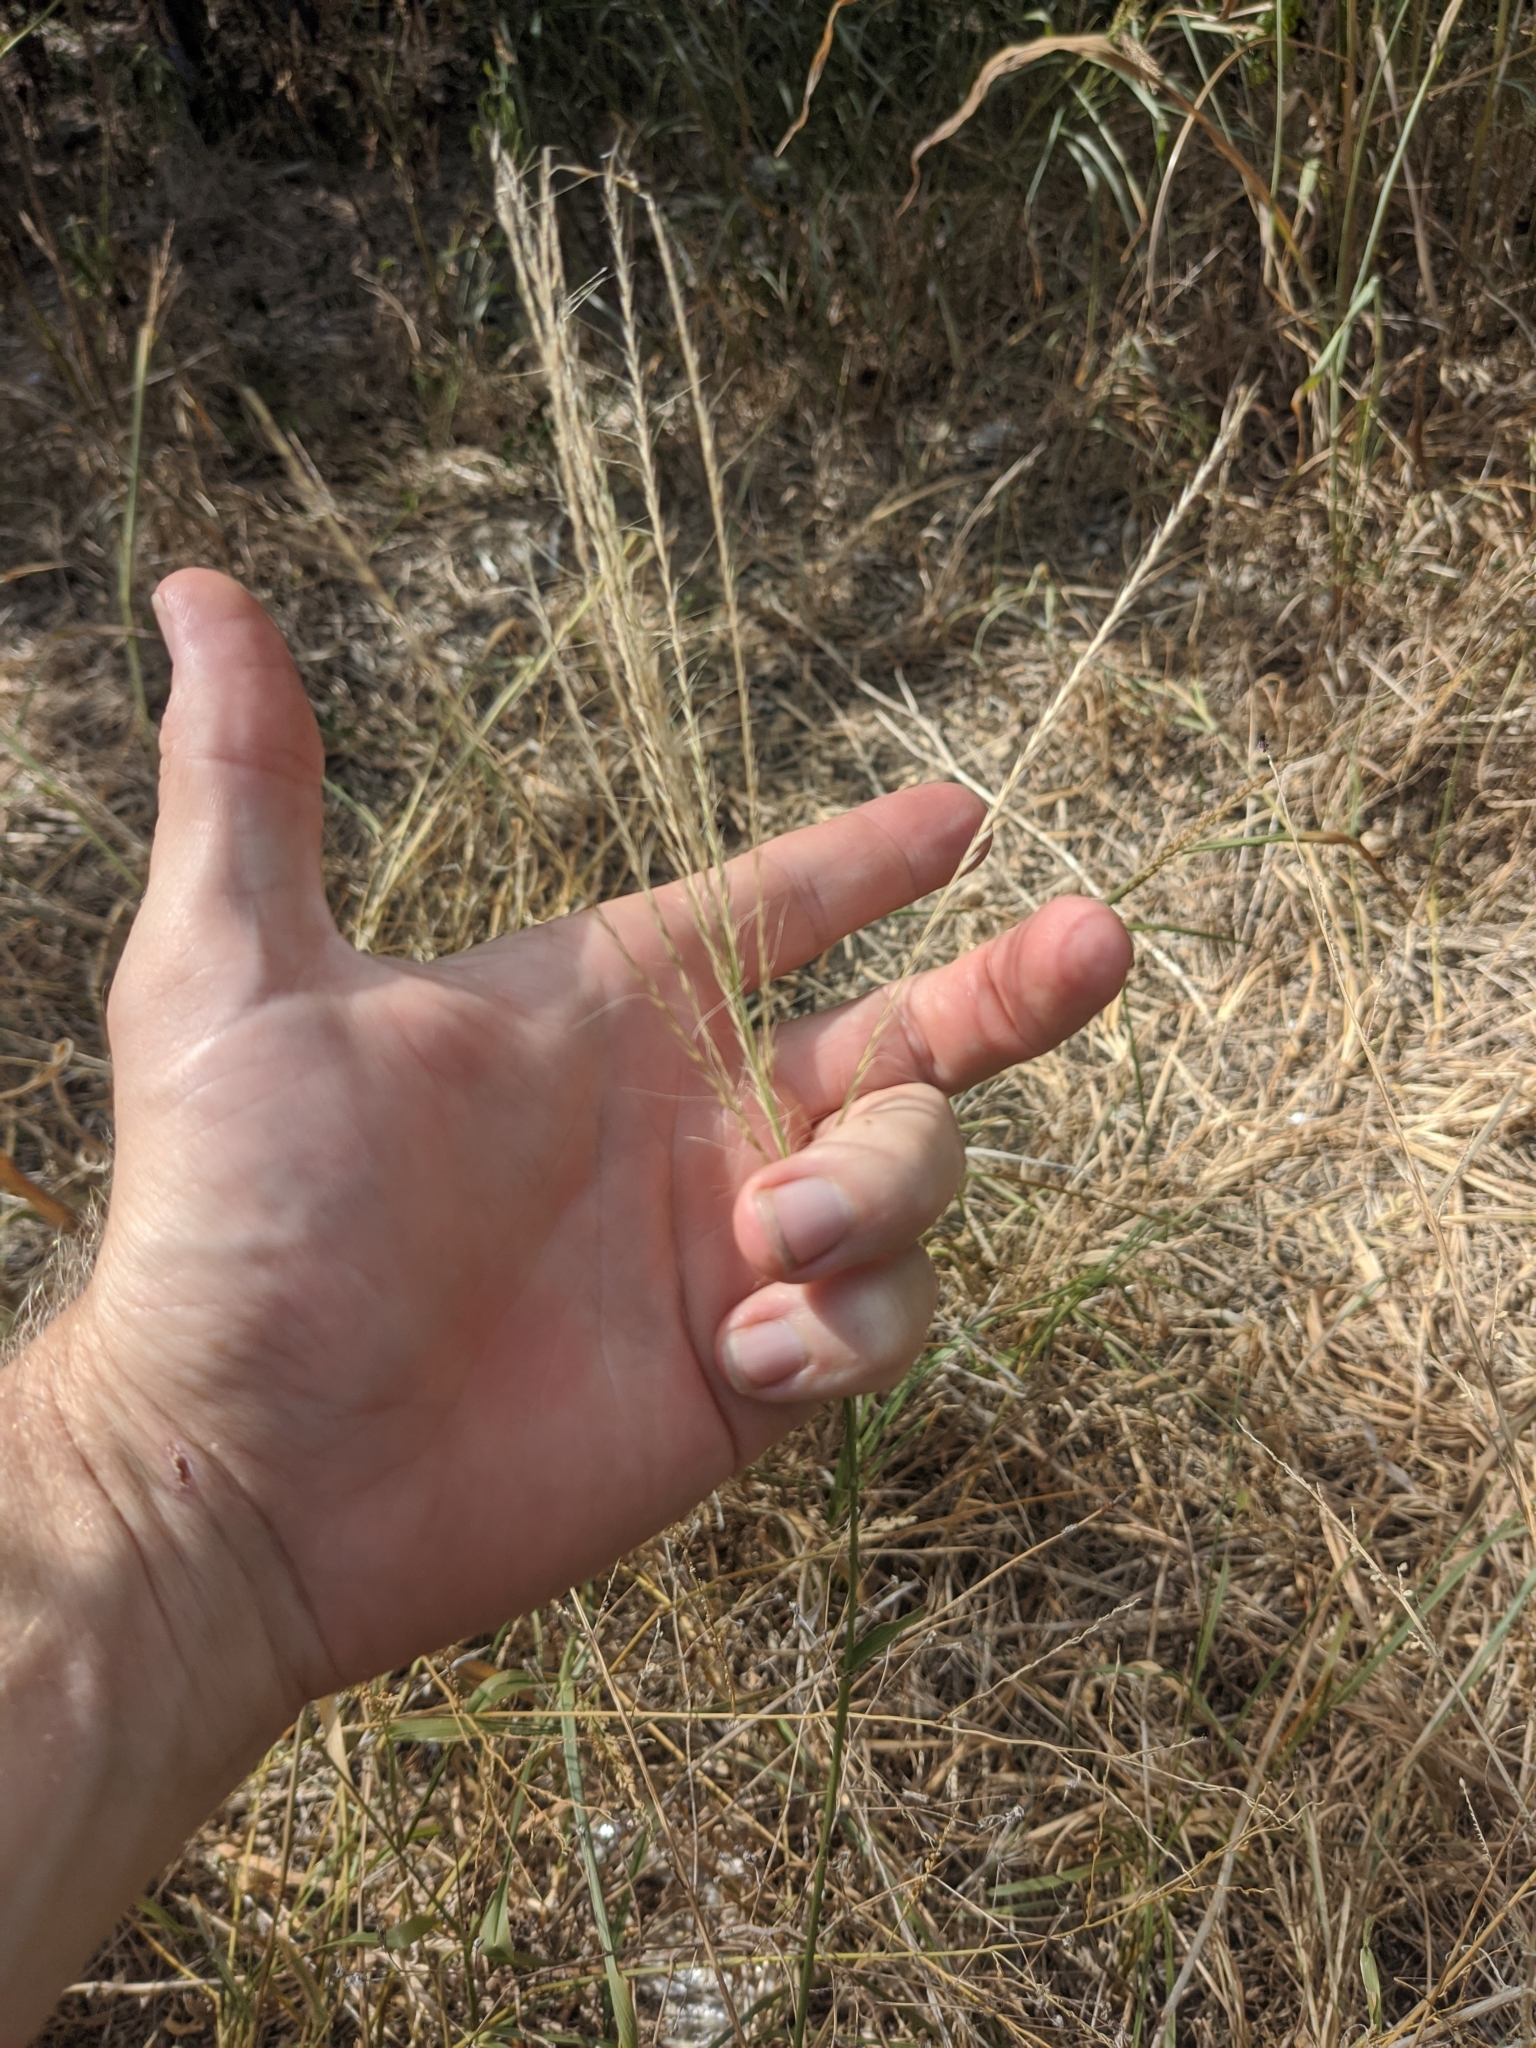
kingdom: Plantae
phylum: Tracheophyta
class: Liliopsida
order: Poales
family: Poaceae
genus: Leptochloa
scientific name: Leptochloa pluriflora
